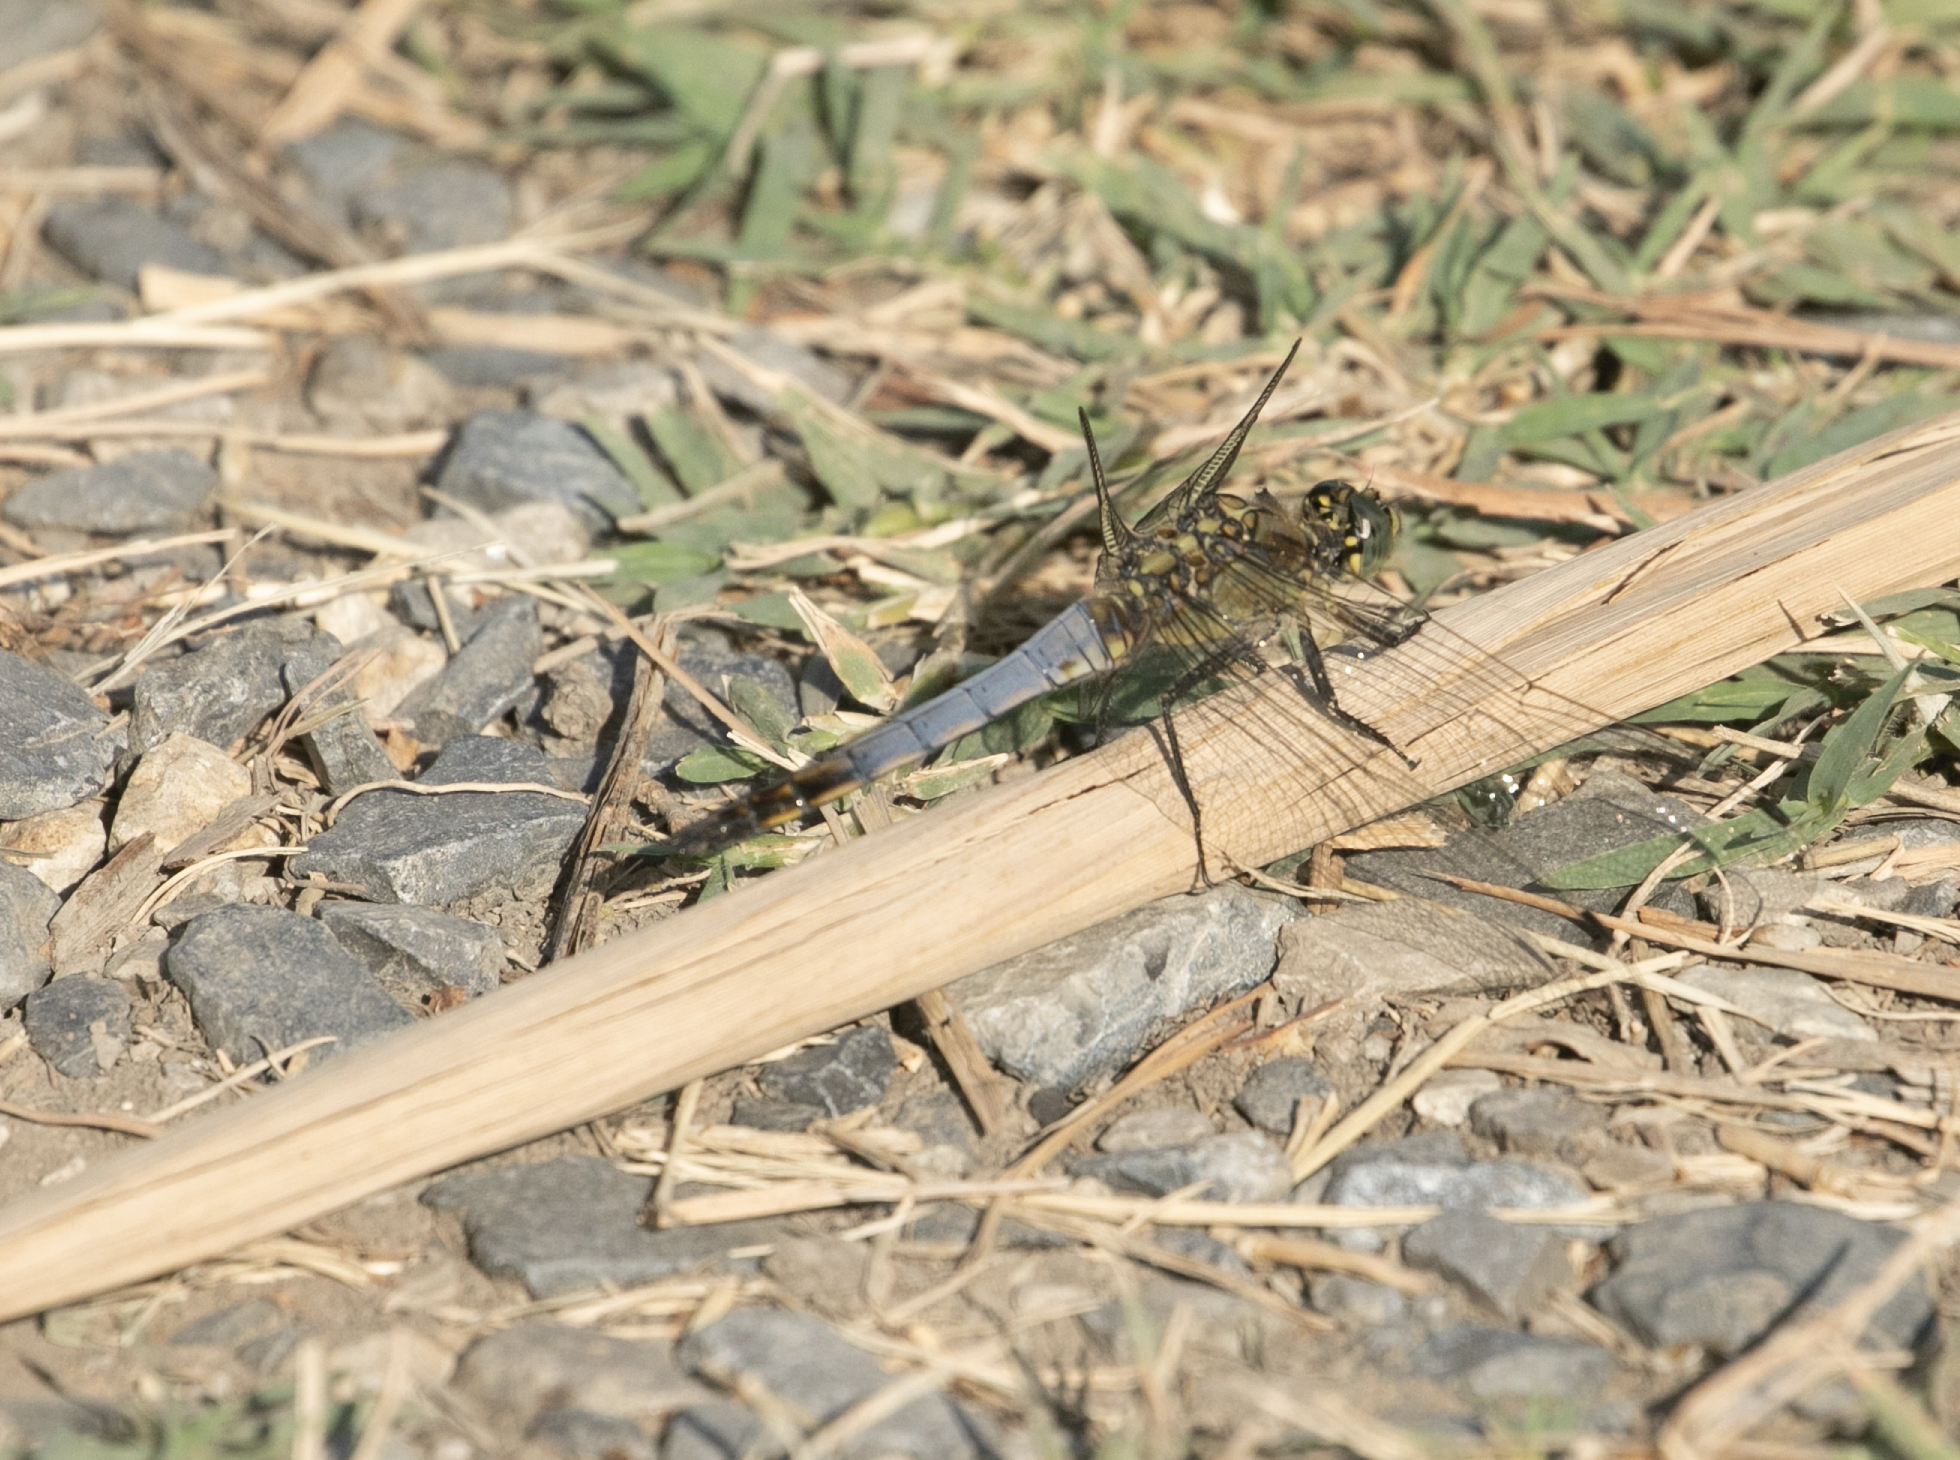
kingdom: Animalia
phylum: Arthropoda
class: Insecta
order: Odonata
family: Libellulidae
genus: Orthetrum
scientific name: Orthetrum cancellatum
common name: Black-tailed skimmer
